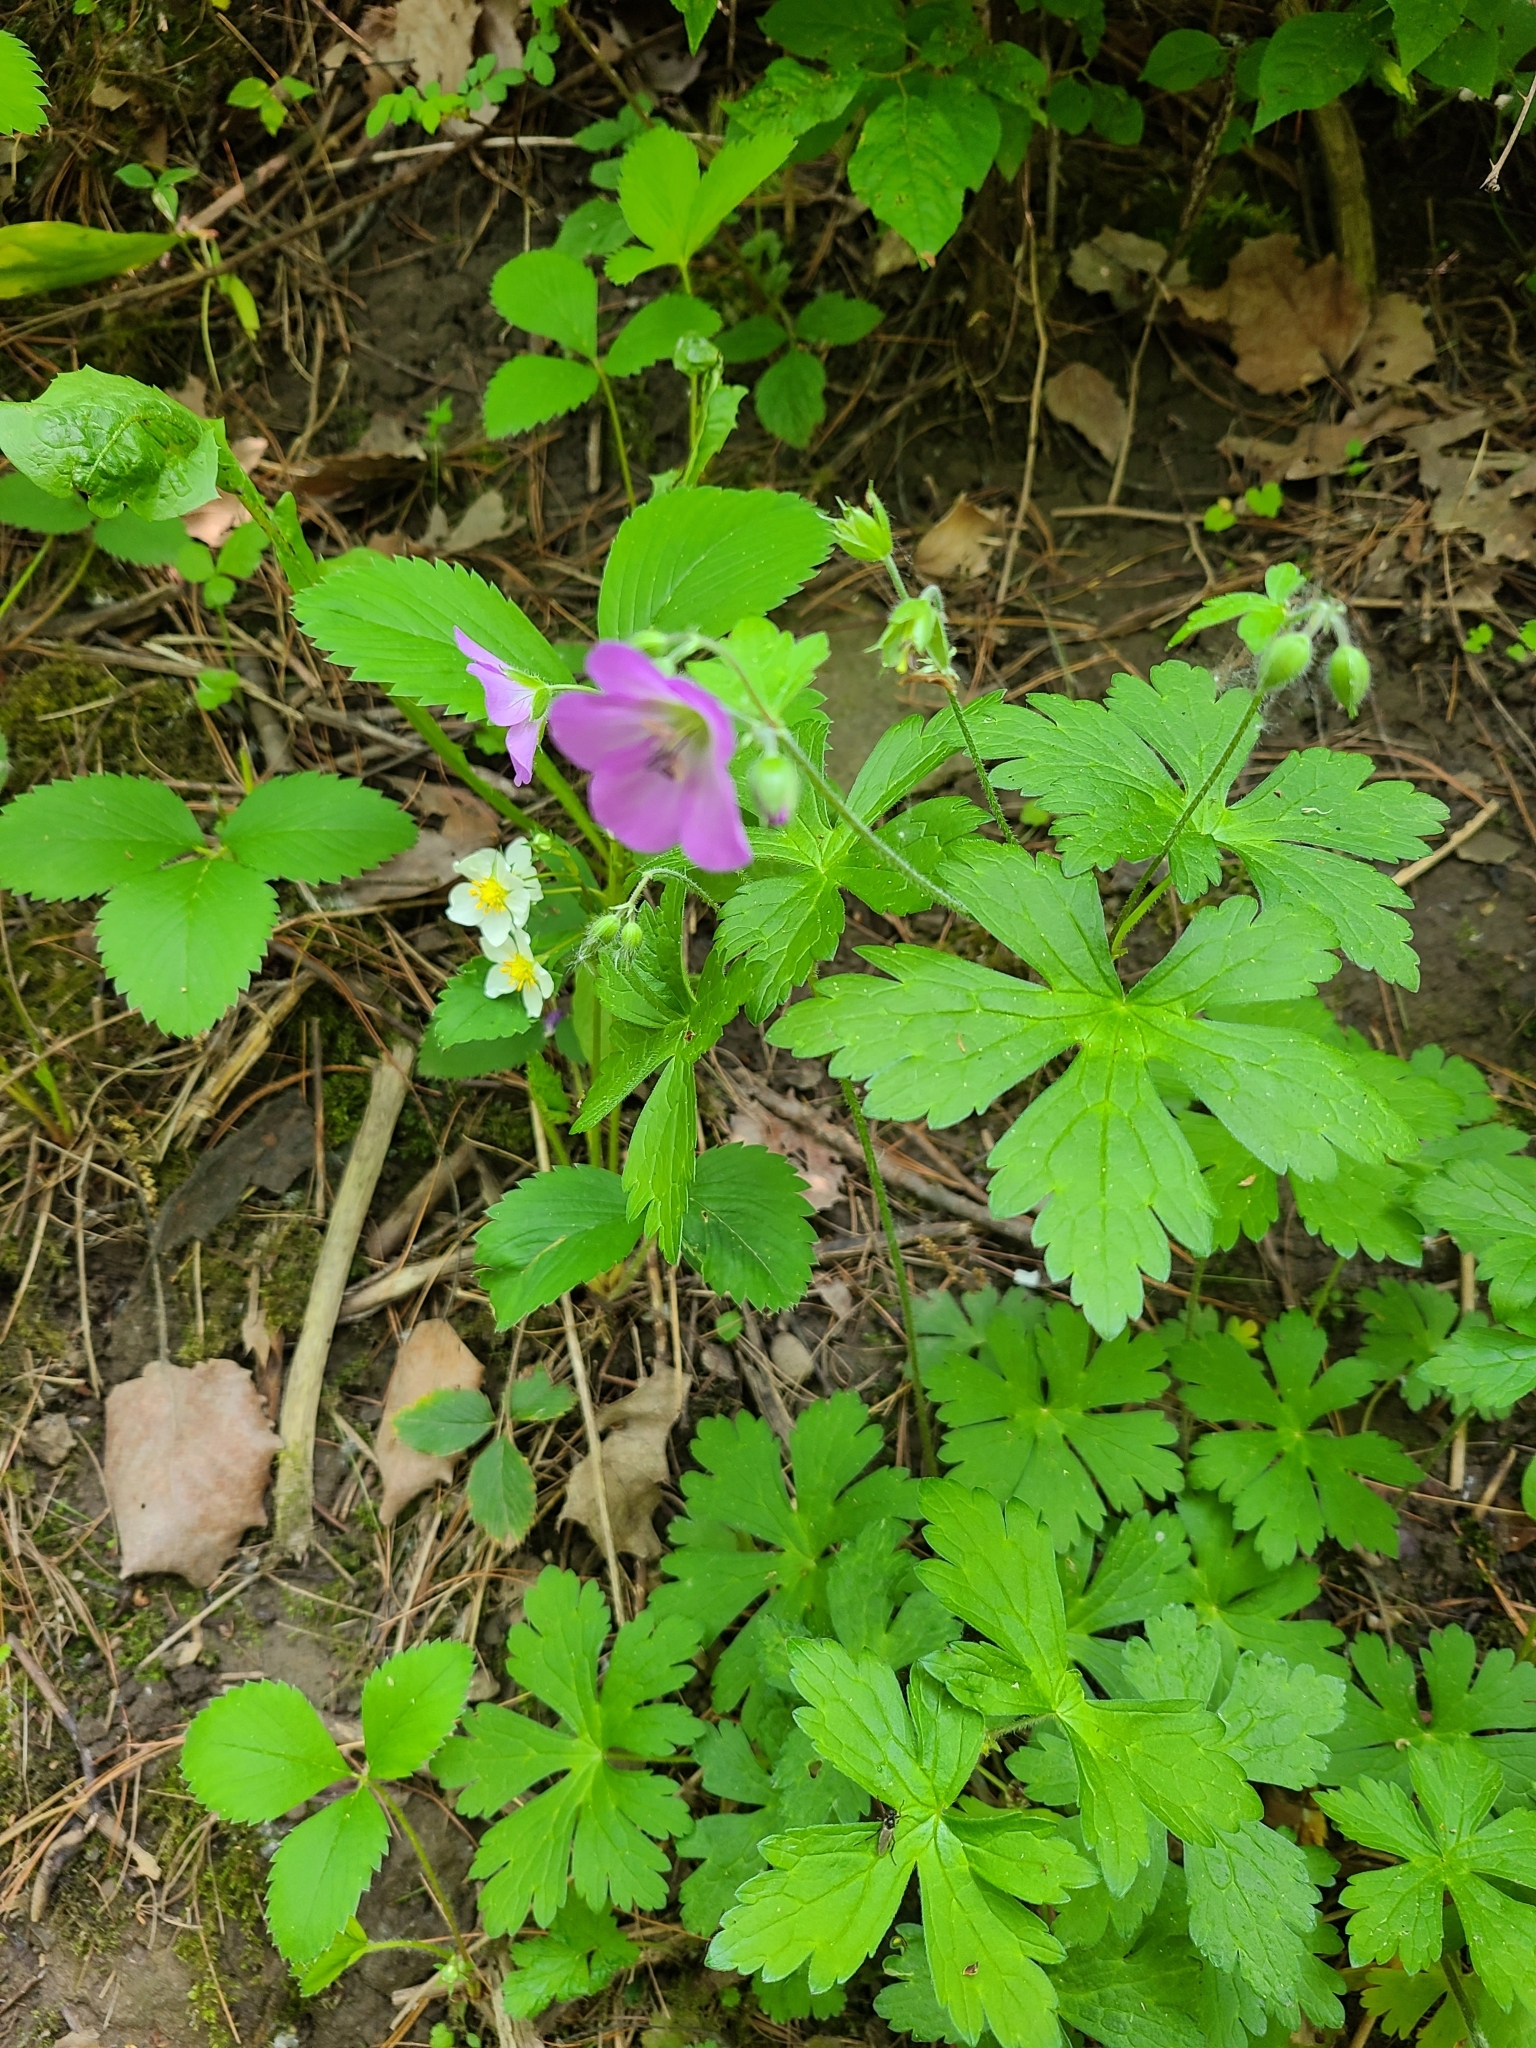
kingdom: Plantae
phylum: Tracheophyta
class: Magnoliopsida
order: Geraniales
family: Geraniaceae
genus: Geranium
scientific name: Geranium maculatum
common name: Spotted geranium
